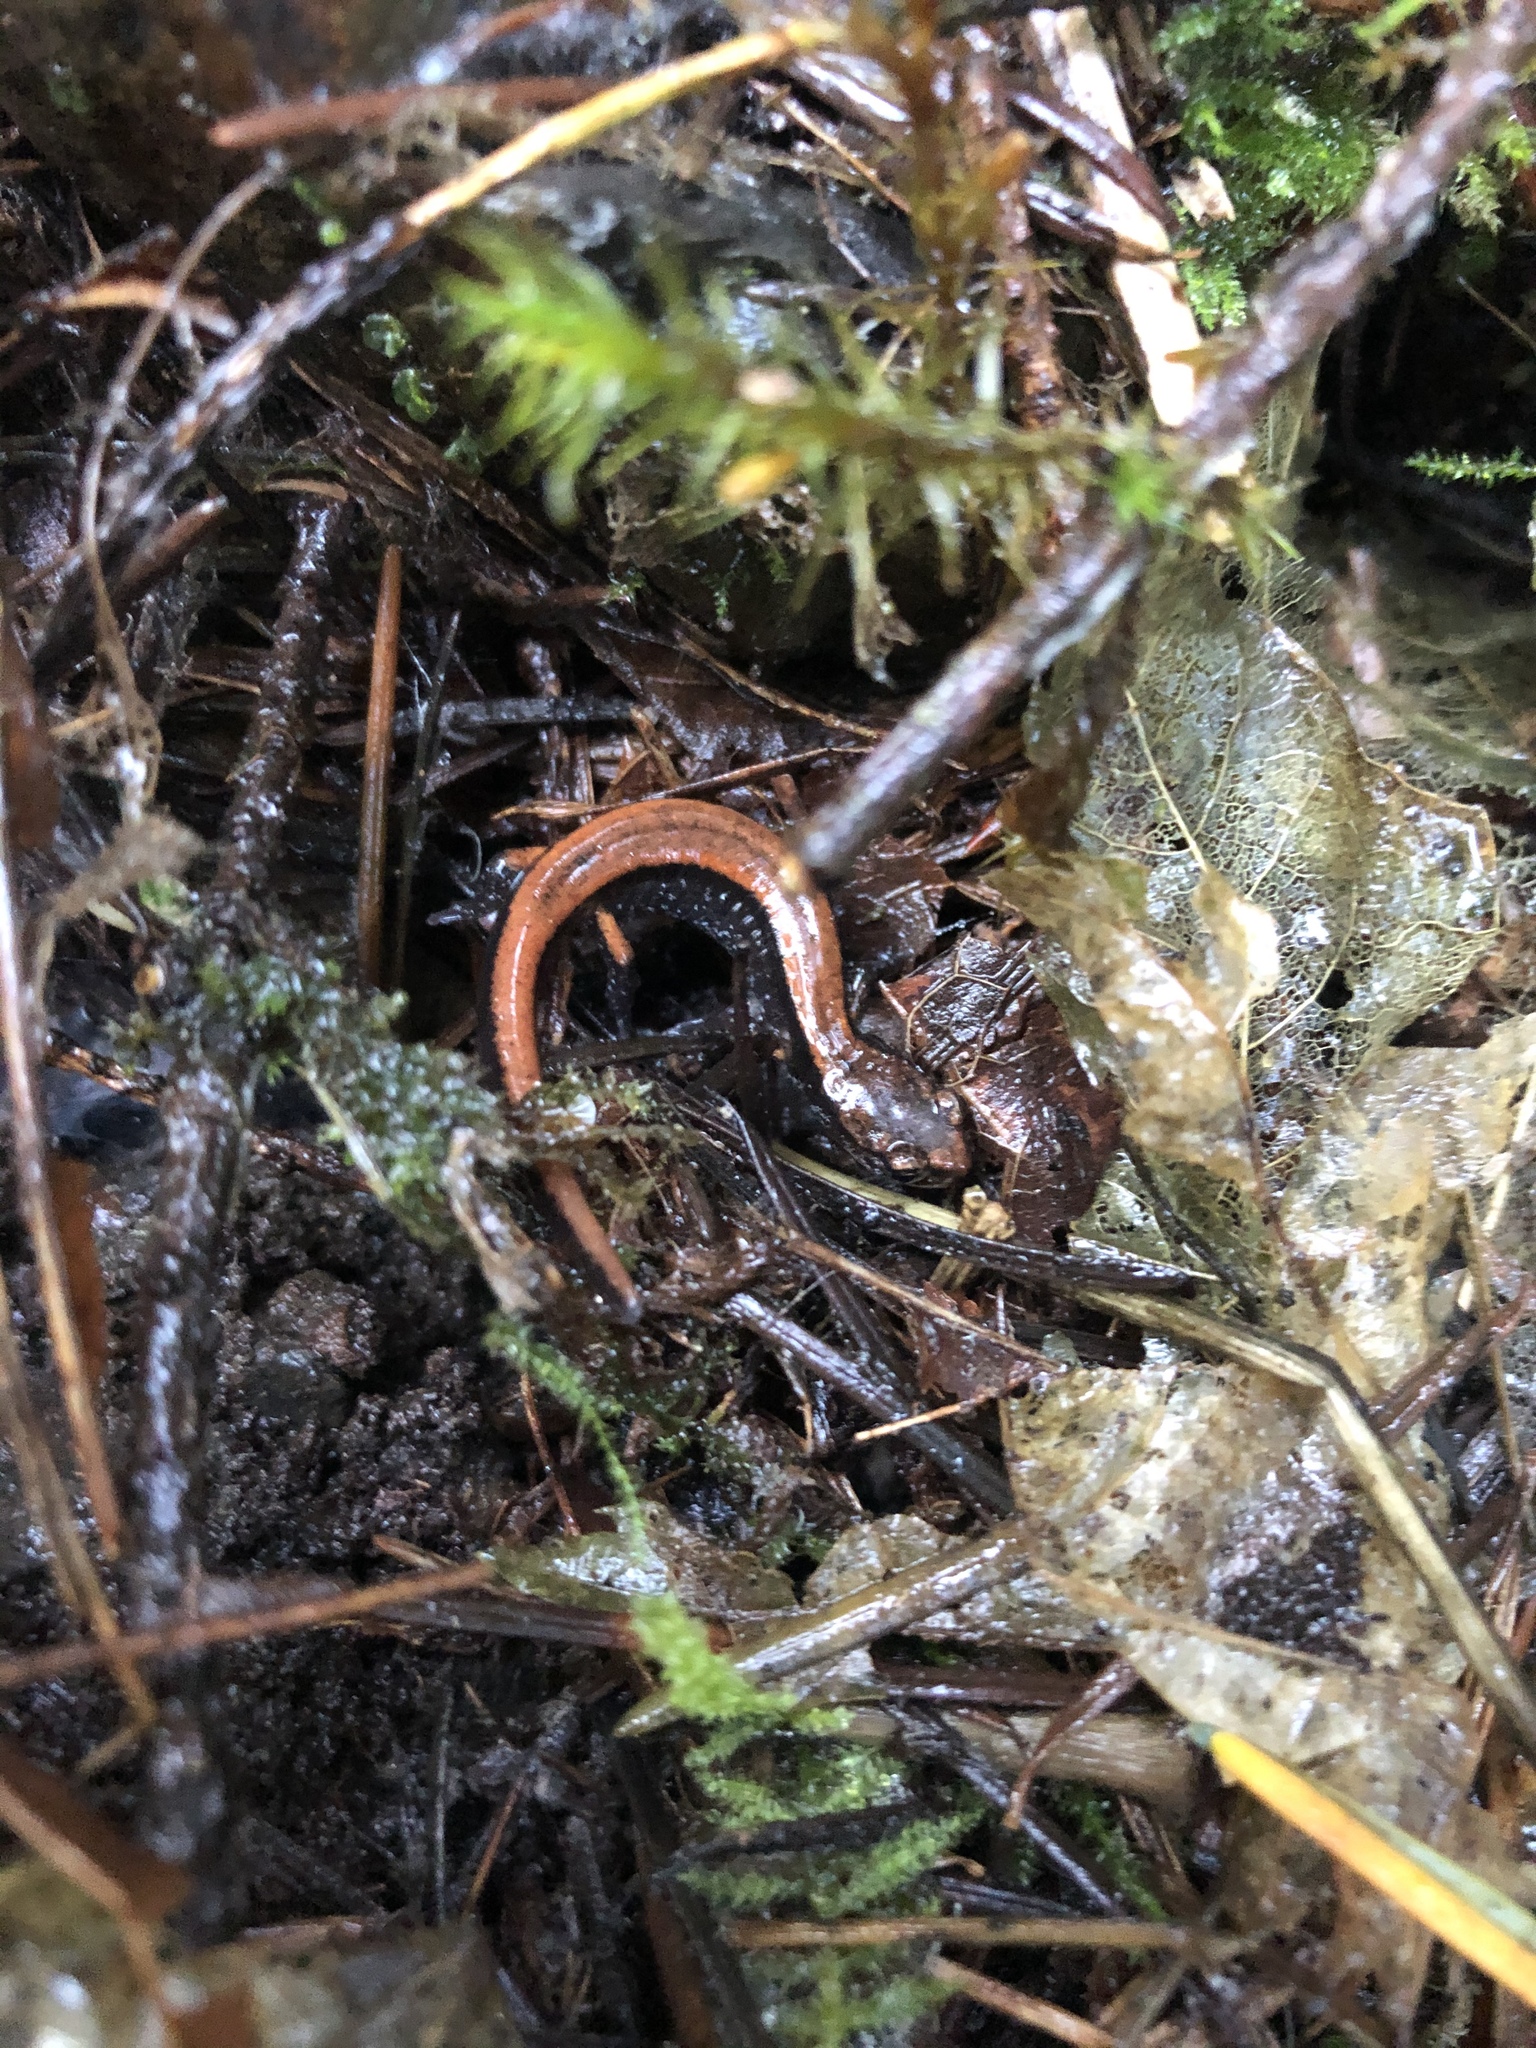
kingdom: Animalia
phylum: Chordata
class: Amphibia
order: Caudata
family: Plethodontidae
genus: Plethodon
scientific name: Plethodon vehiculum
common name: Western red-backed salamander
